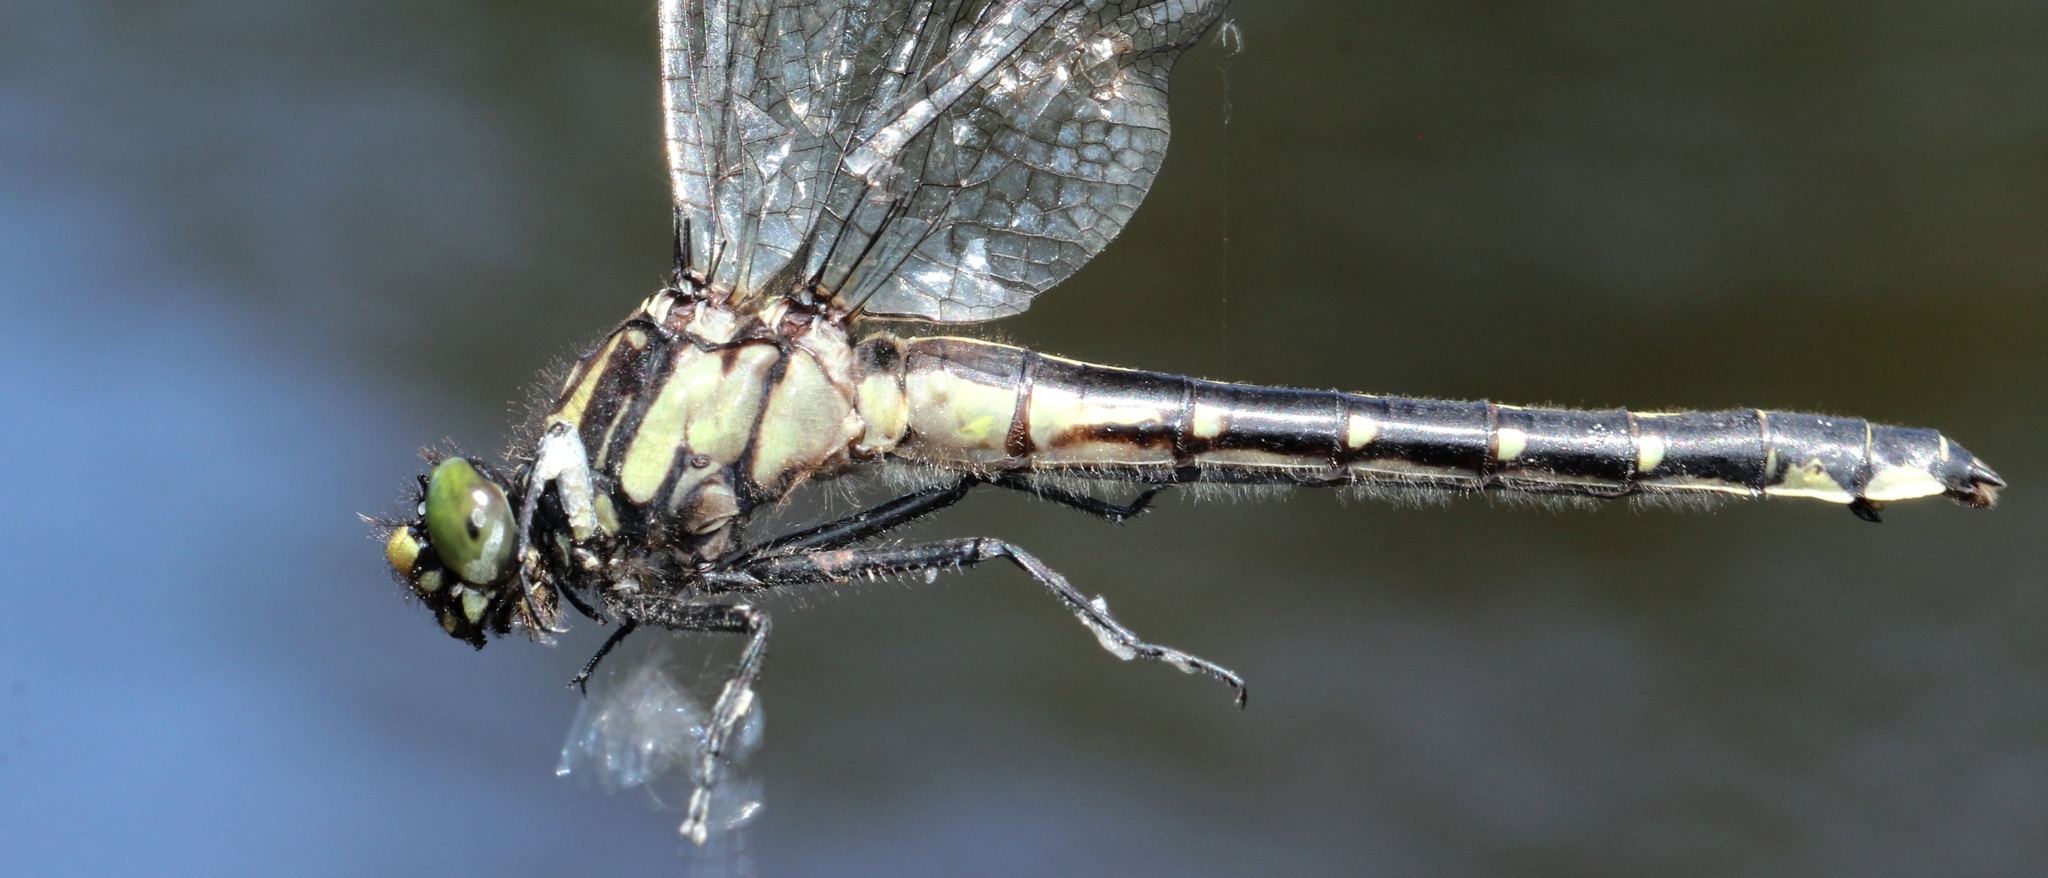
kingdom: Animalia
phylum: Arthropoda
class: Insecta
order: Odonata
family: Gomphidae
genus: Hylogomphus
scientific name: Hylogomphus adelphus
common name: Mustached clubtail
